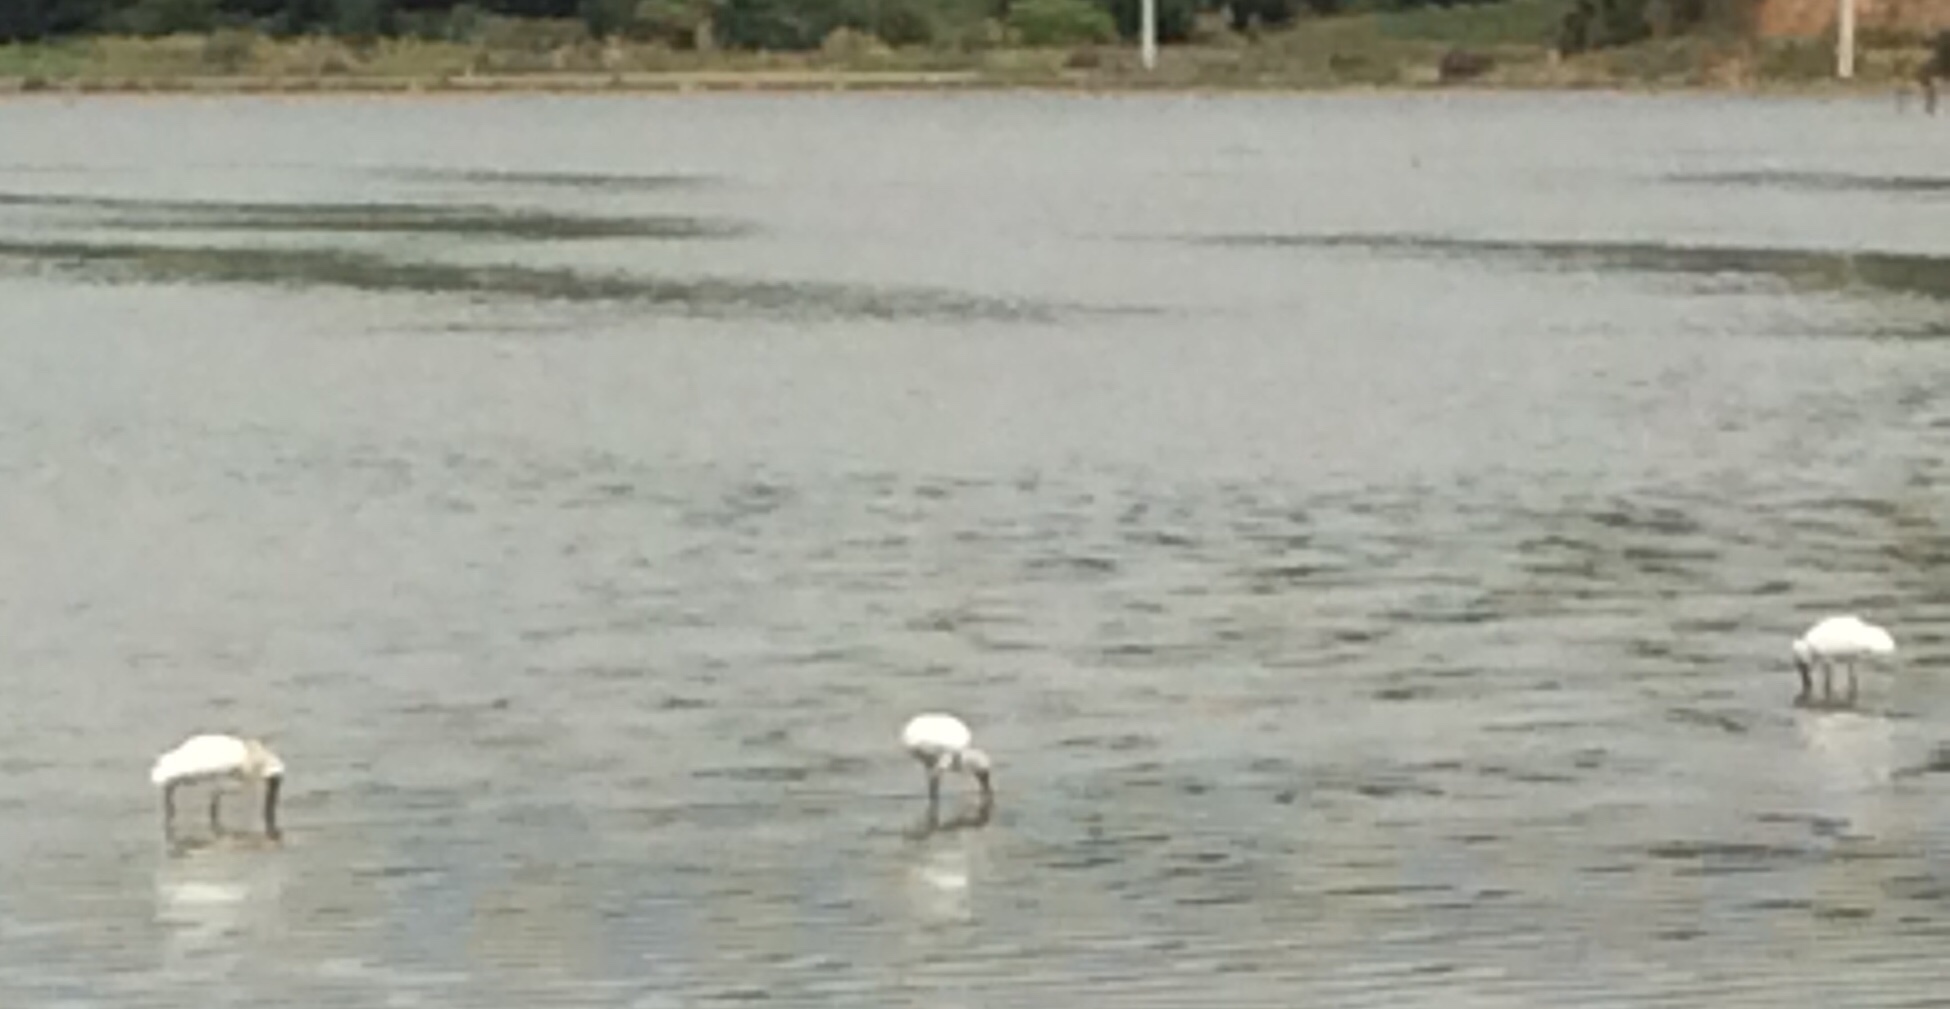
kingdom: Animalia
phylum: Chordata
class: Aves
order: Pelecaniformes
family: Threskiornithidae
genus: Platalea
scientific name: Platalea regia
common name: Royal spoonbill
